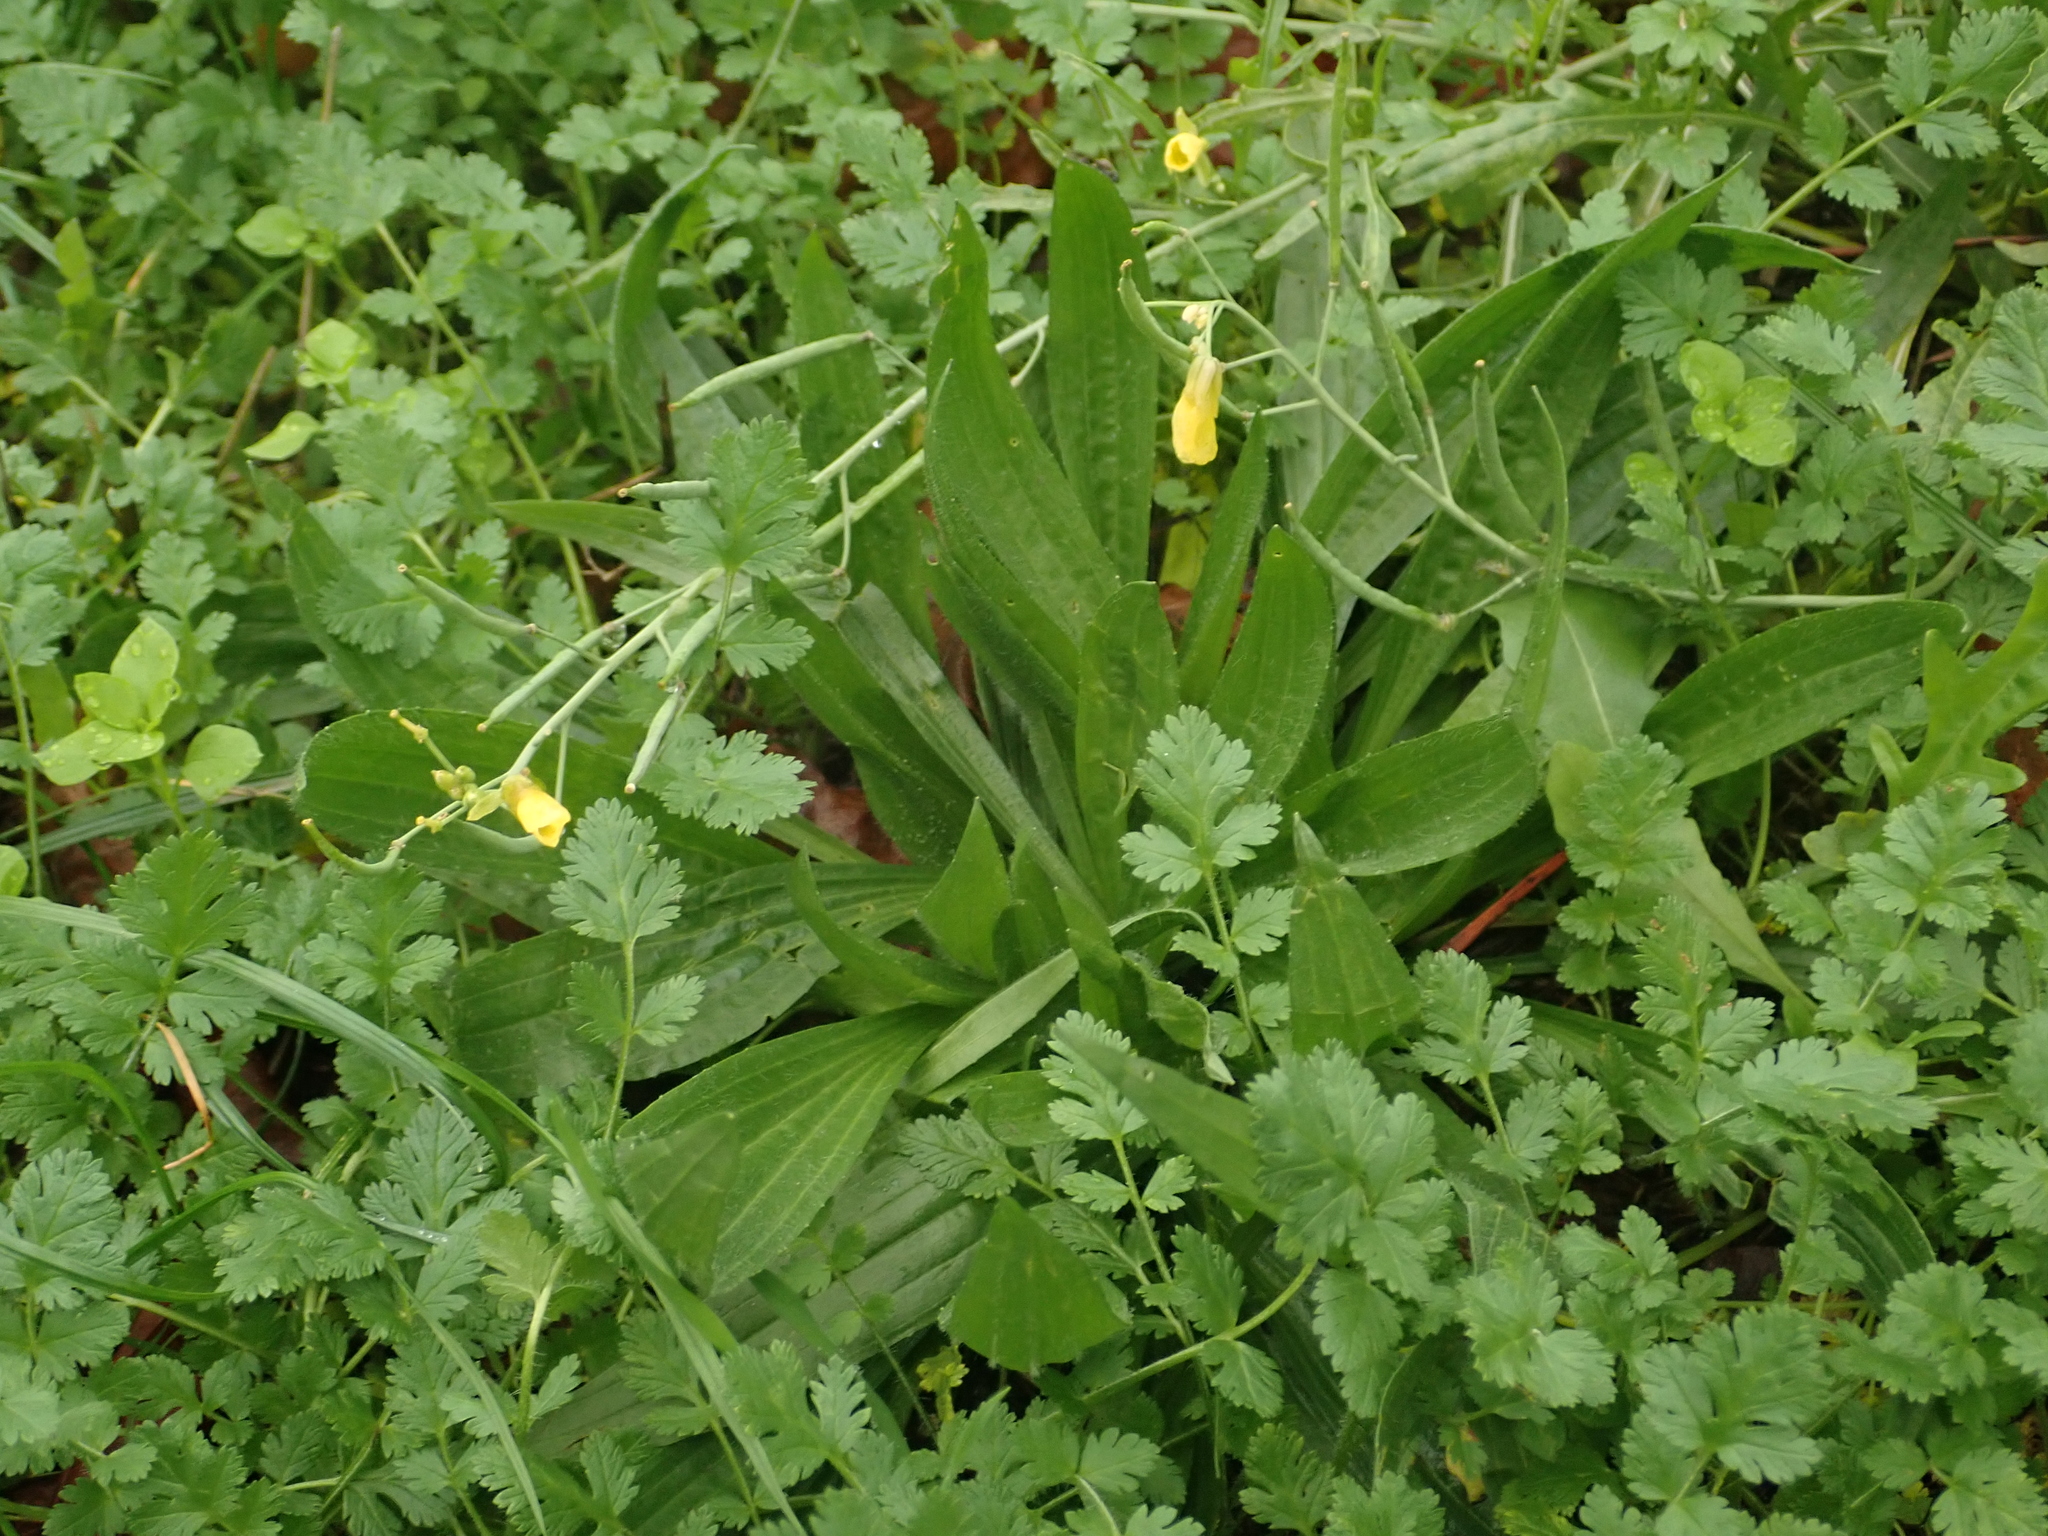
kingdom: Plantae
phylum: Tracheophyta
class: Magnoliopsida
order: Lamiales
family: Plantaginaceae
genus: Plantago
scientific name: Plantago lanceolata
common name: Ribwort plantain
